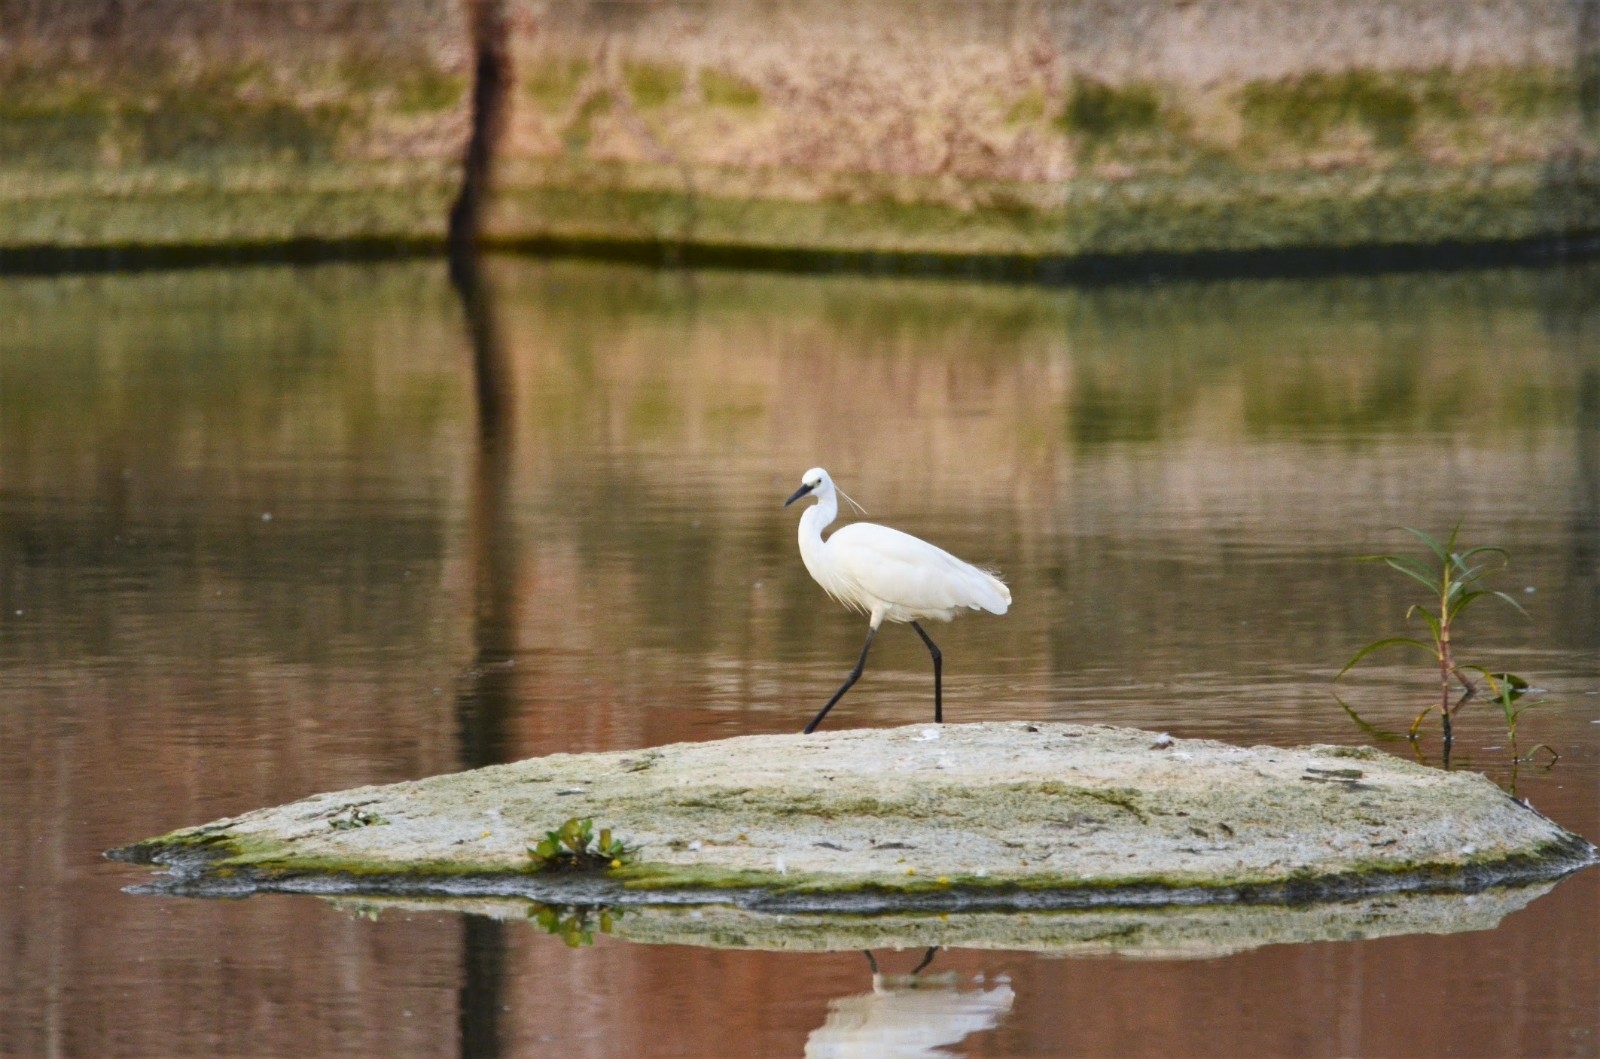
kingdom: Animalia
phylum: Chordata
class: Aves
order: Pelecaniformes
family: Ardeidae
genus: Egretta
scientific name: Egretta garzetta
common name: Little egret
